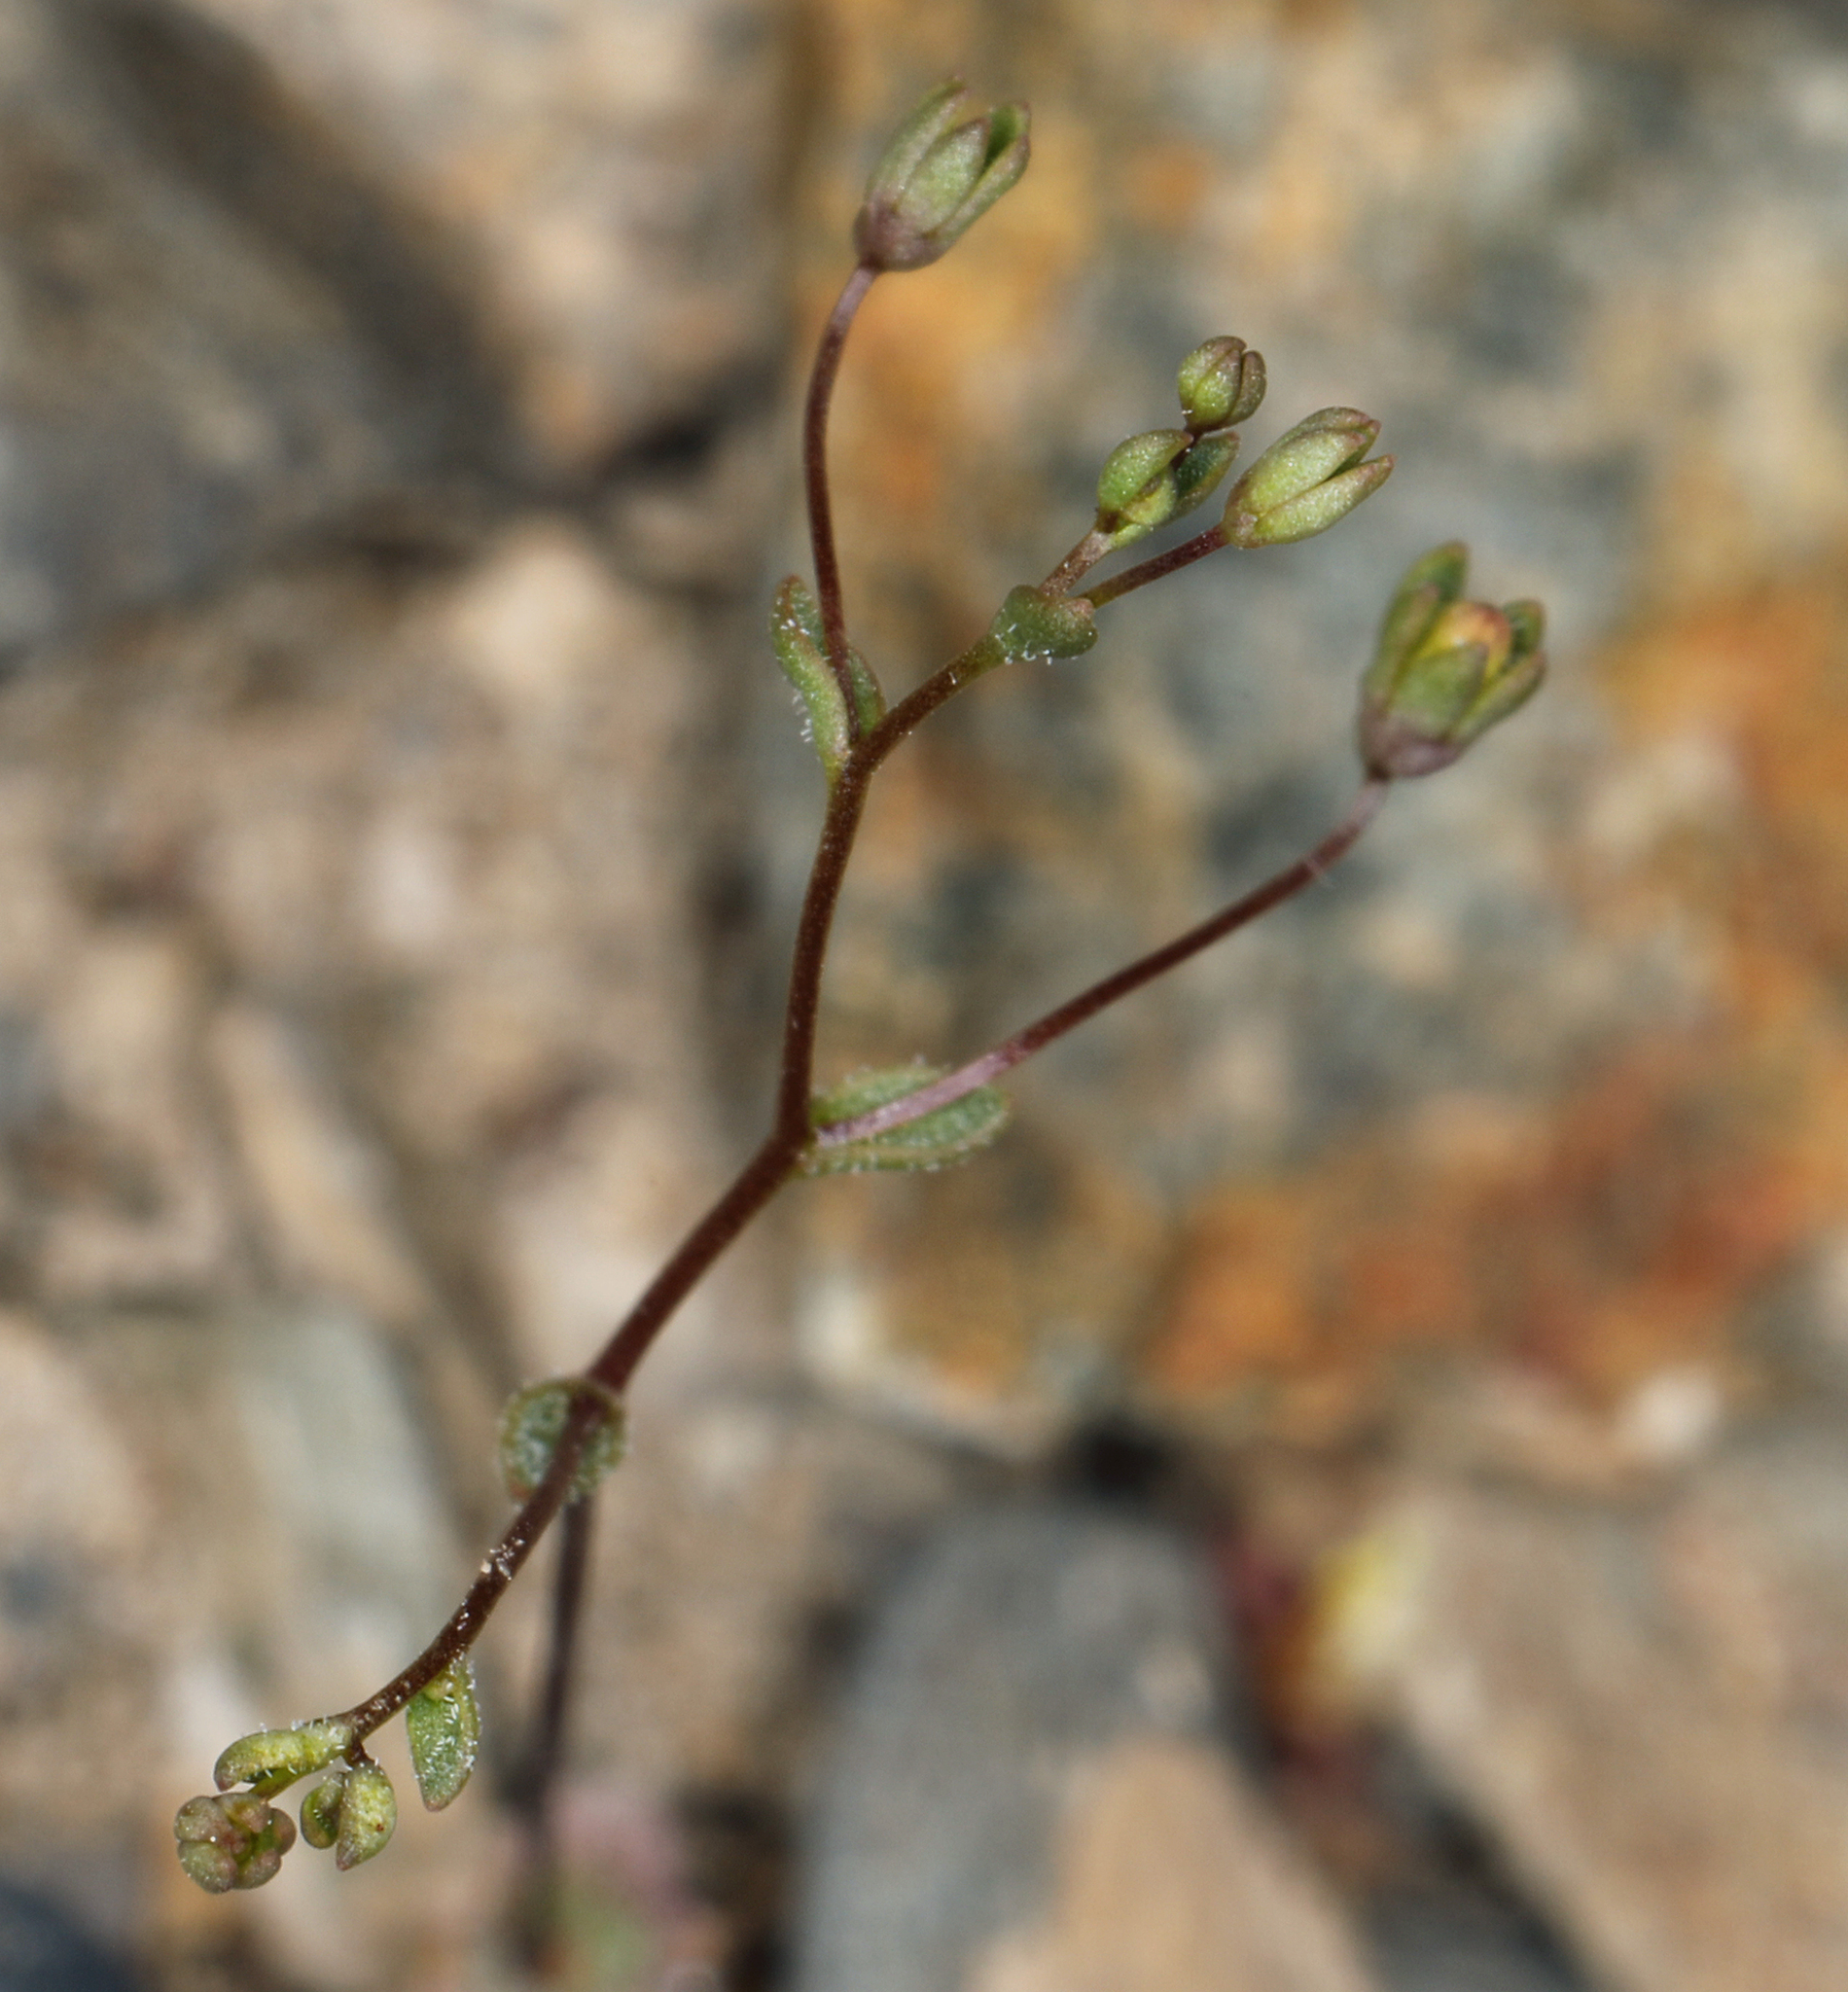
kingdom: Plantae
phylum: Tracheophyta
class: Magnoliopsida
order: Asterales
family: Campanulaceae
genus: Nemacladus
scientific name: Nemacladus inyoensis
